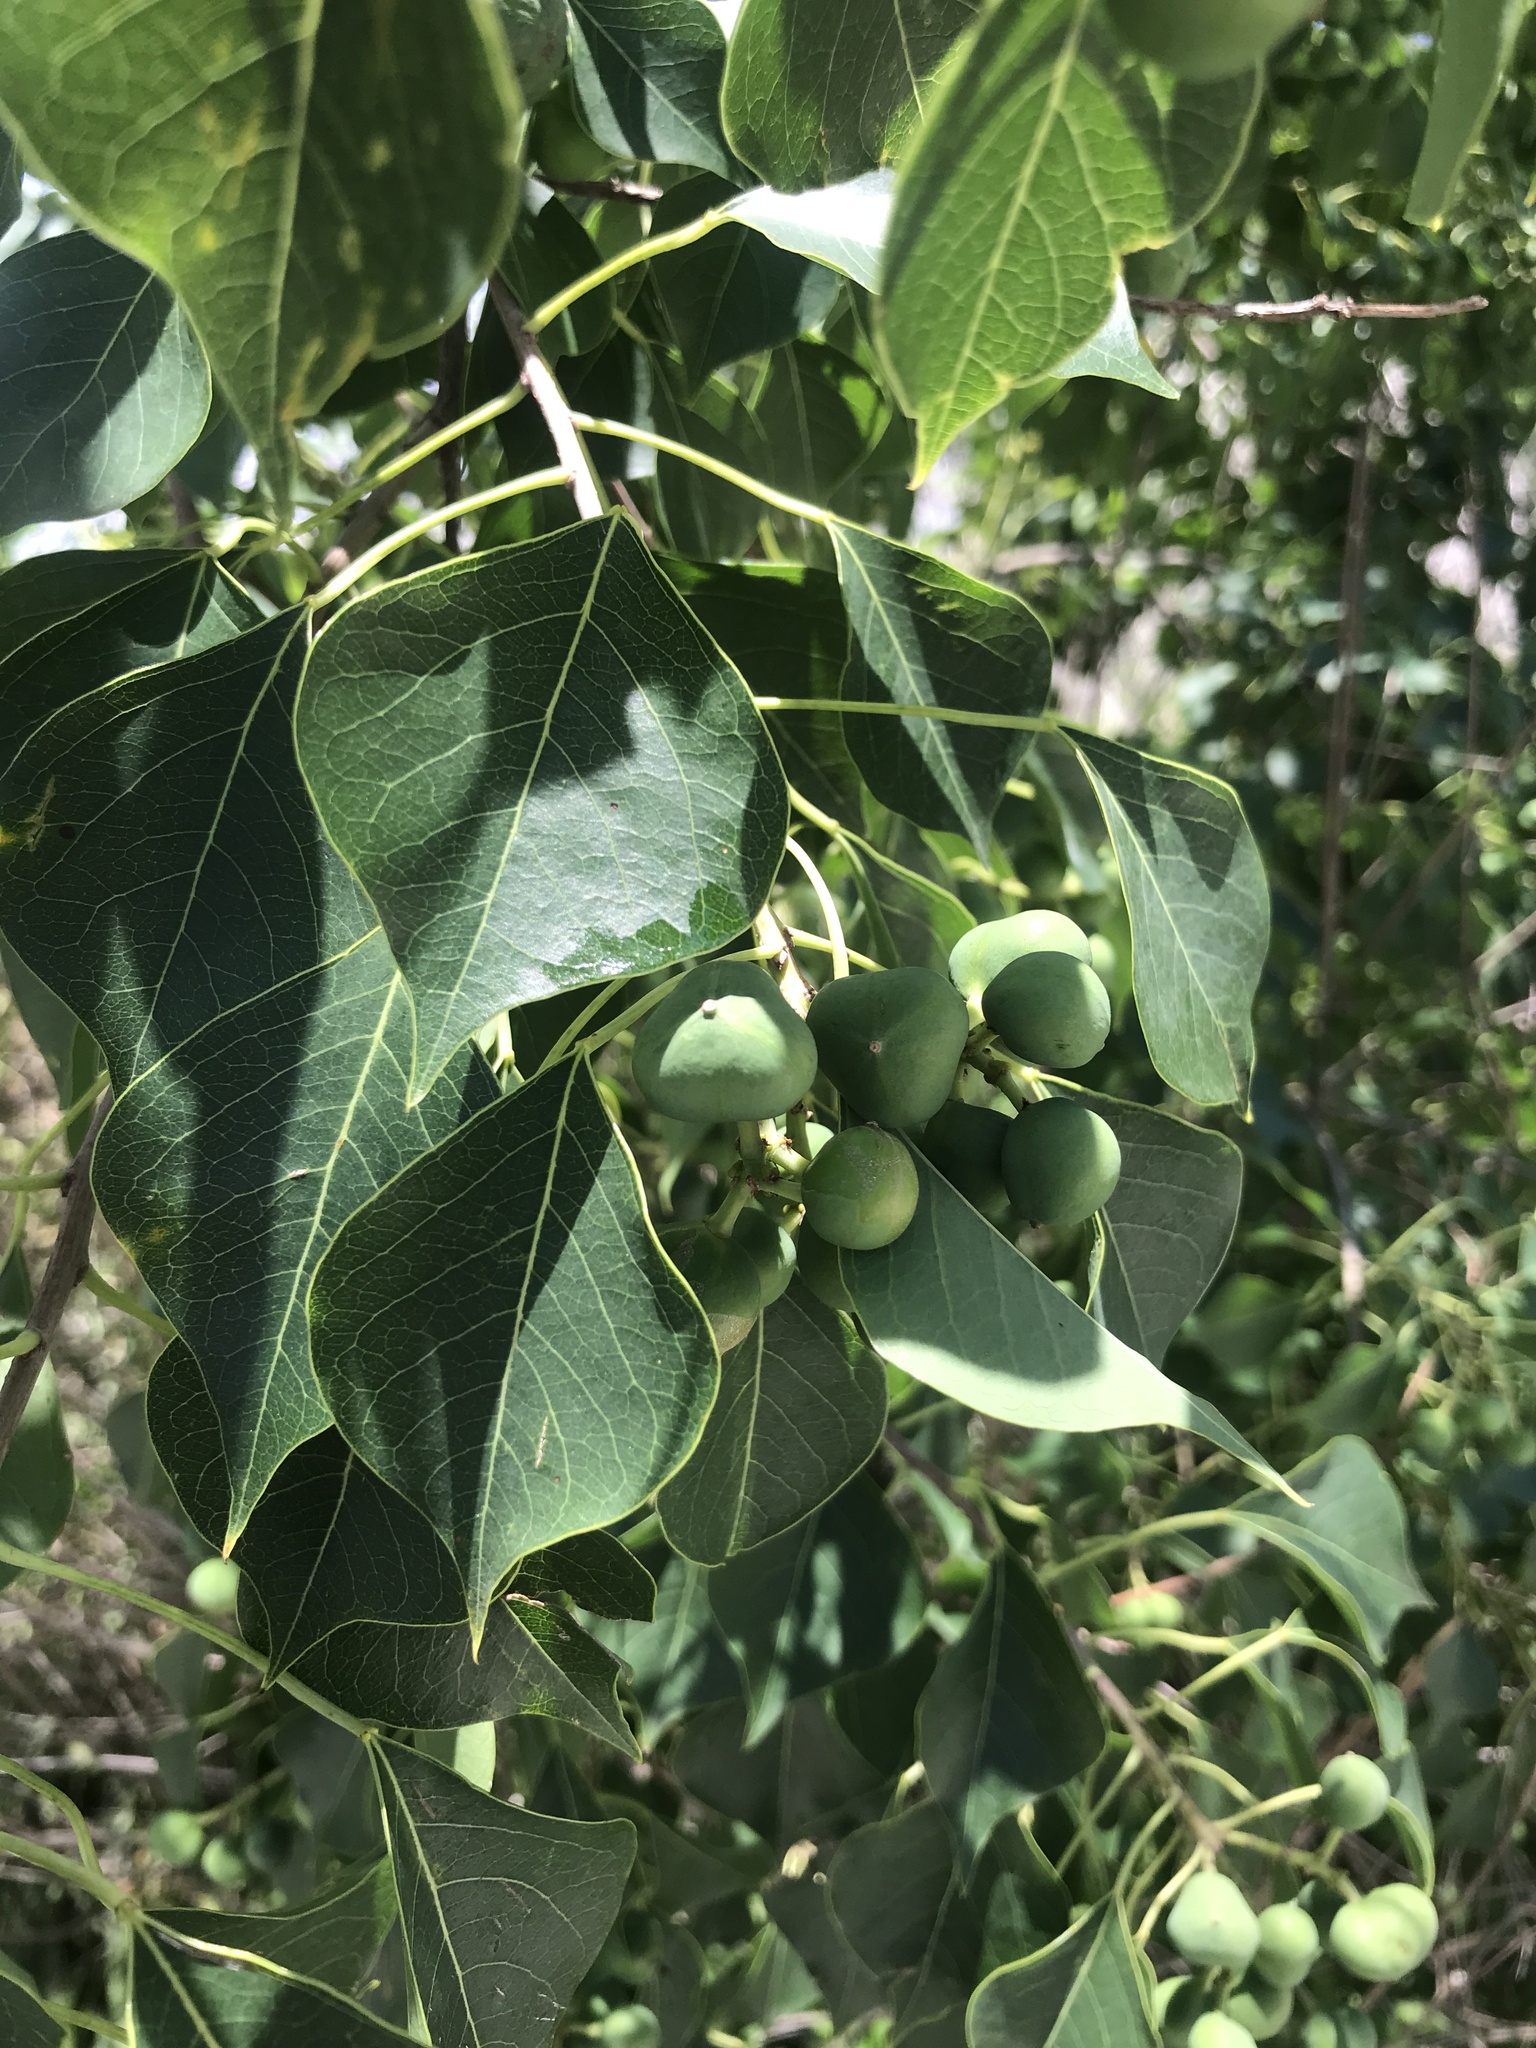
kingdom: Plantae
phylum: Tracheophyta
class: Magnoliopsida
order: Malpighiales
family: Euphorbiaceae
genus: Triadica
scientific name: Triadica sebifera
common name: Chinese tallow
